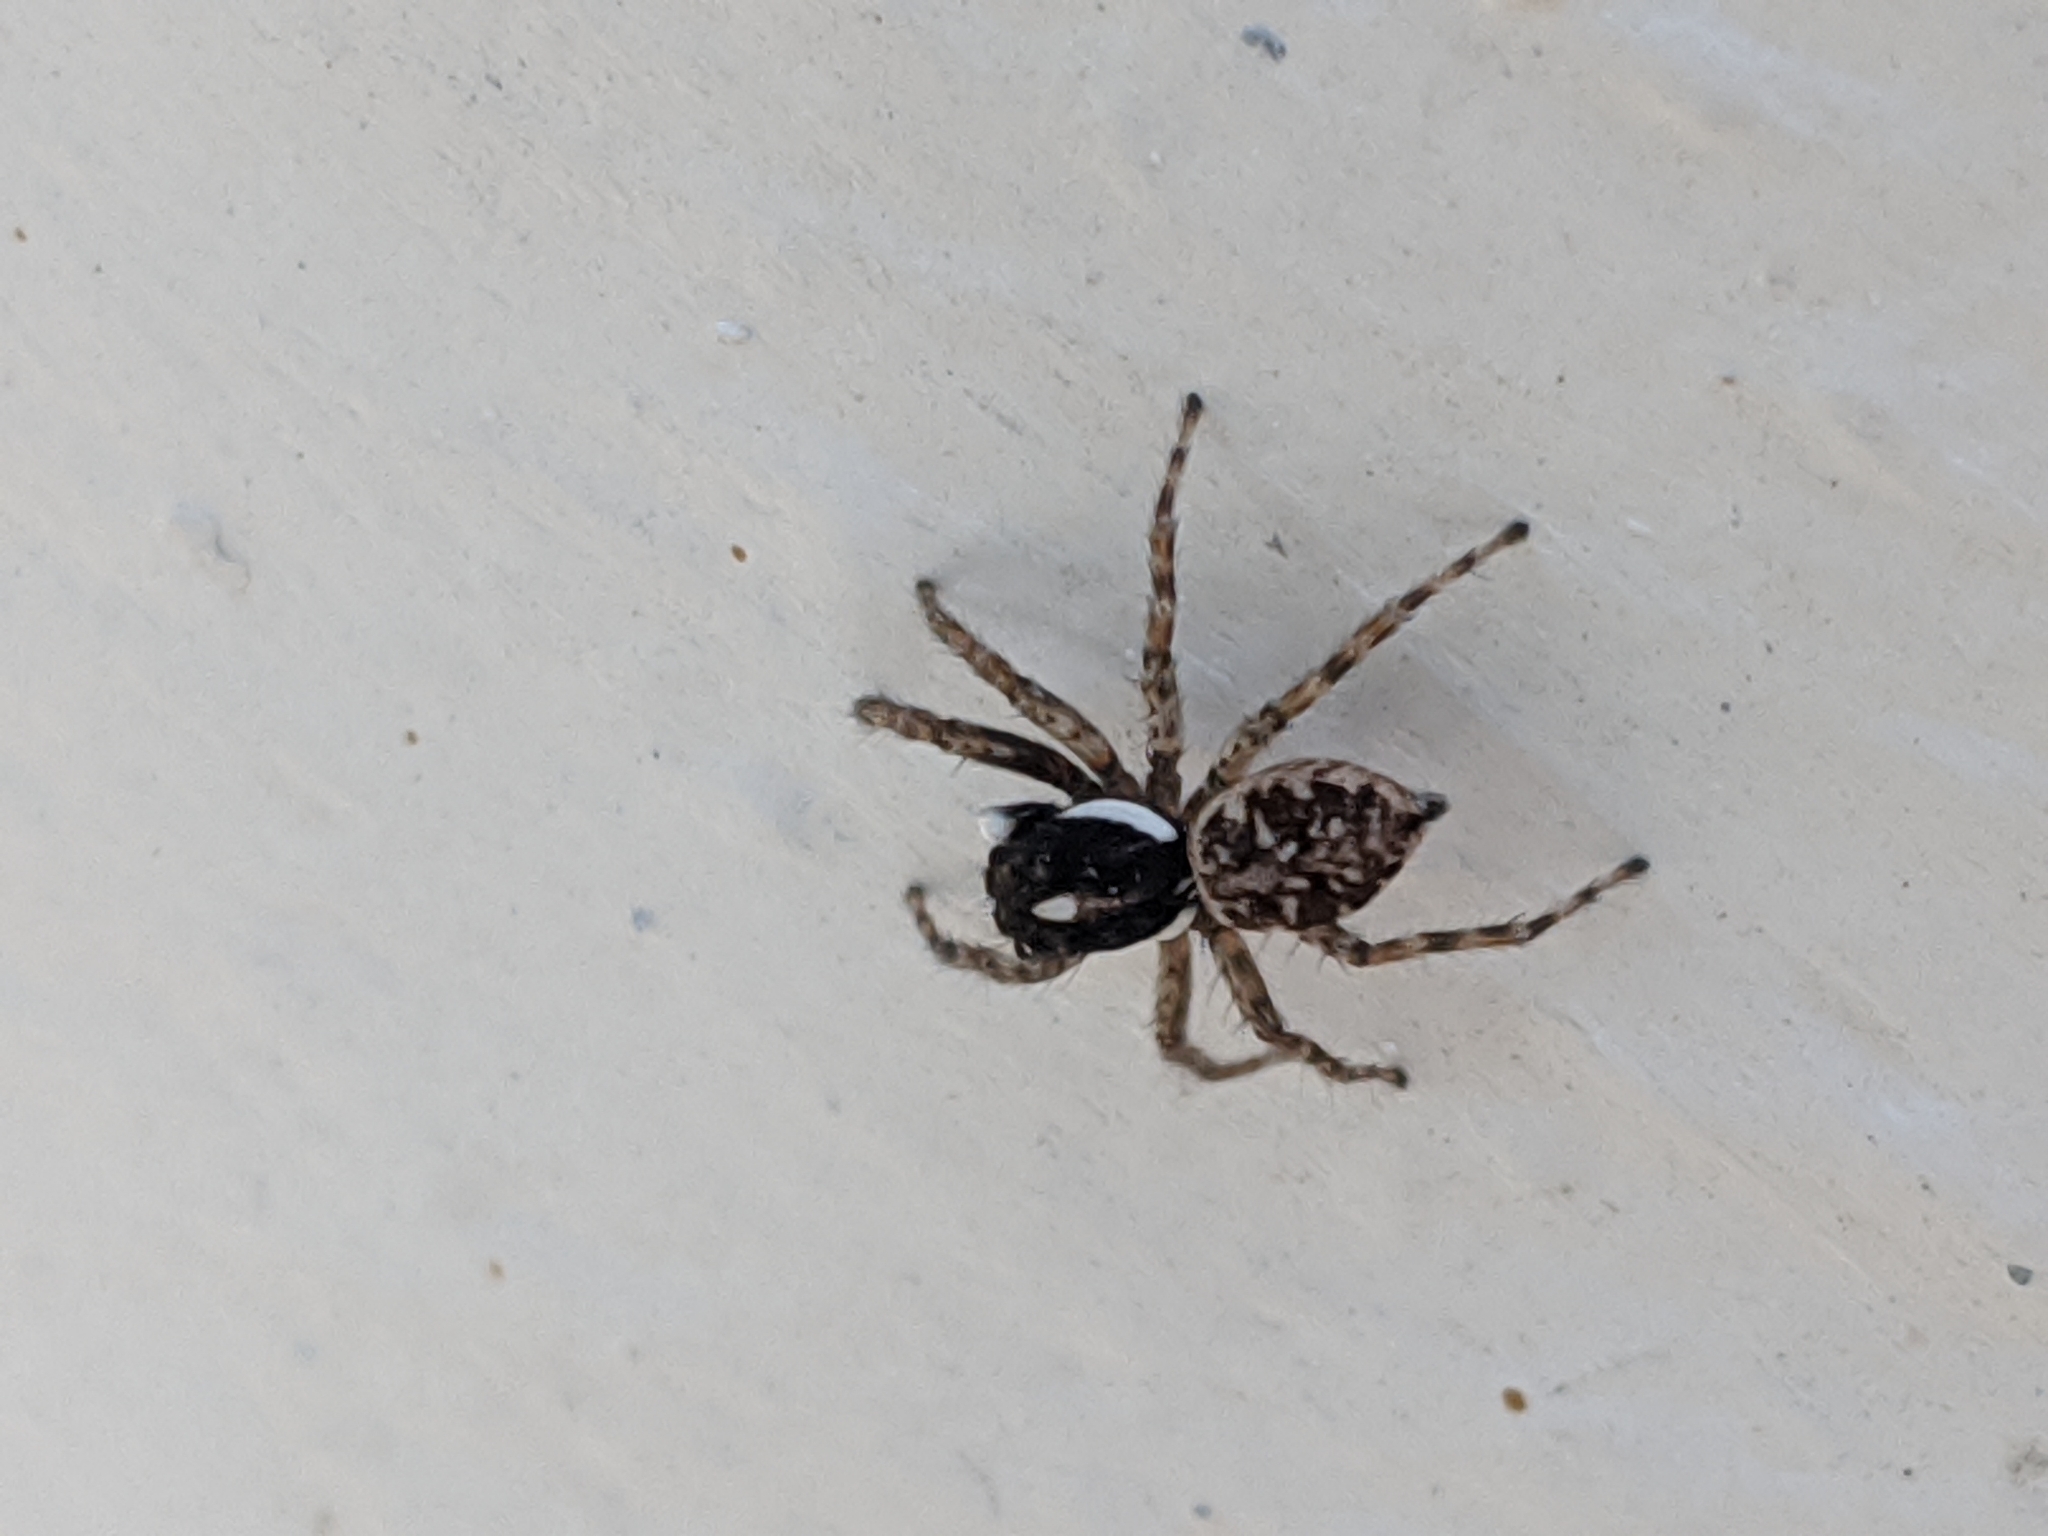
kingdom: Animalia
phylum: Arthropoda
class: Arachnida
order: Araneae
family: Salticidae
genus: Menemerus
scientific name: Menemerus semilimbatus
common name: Jumping spider
